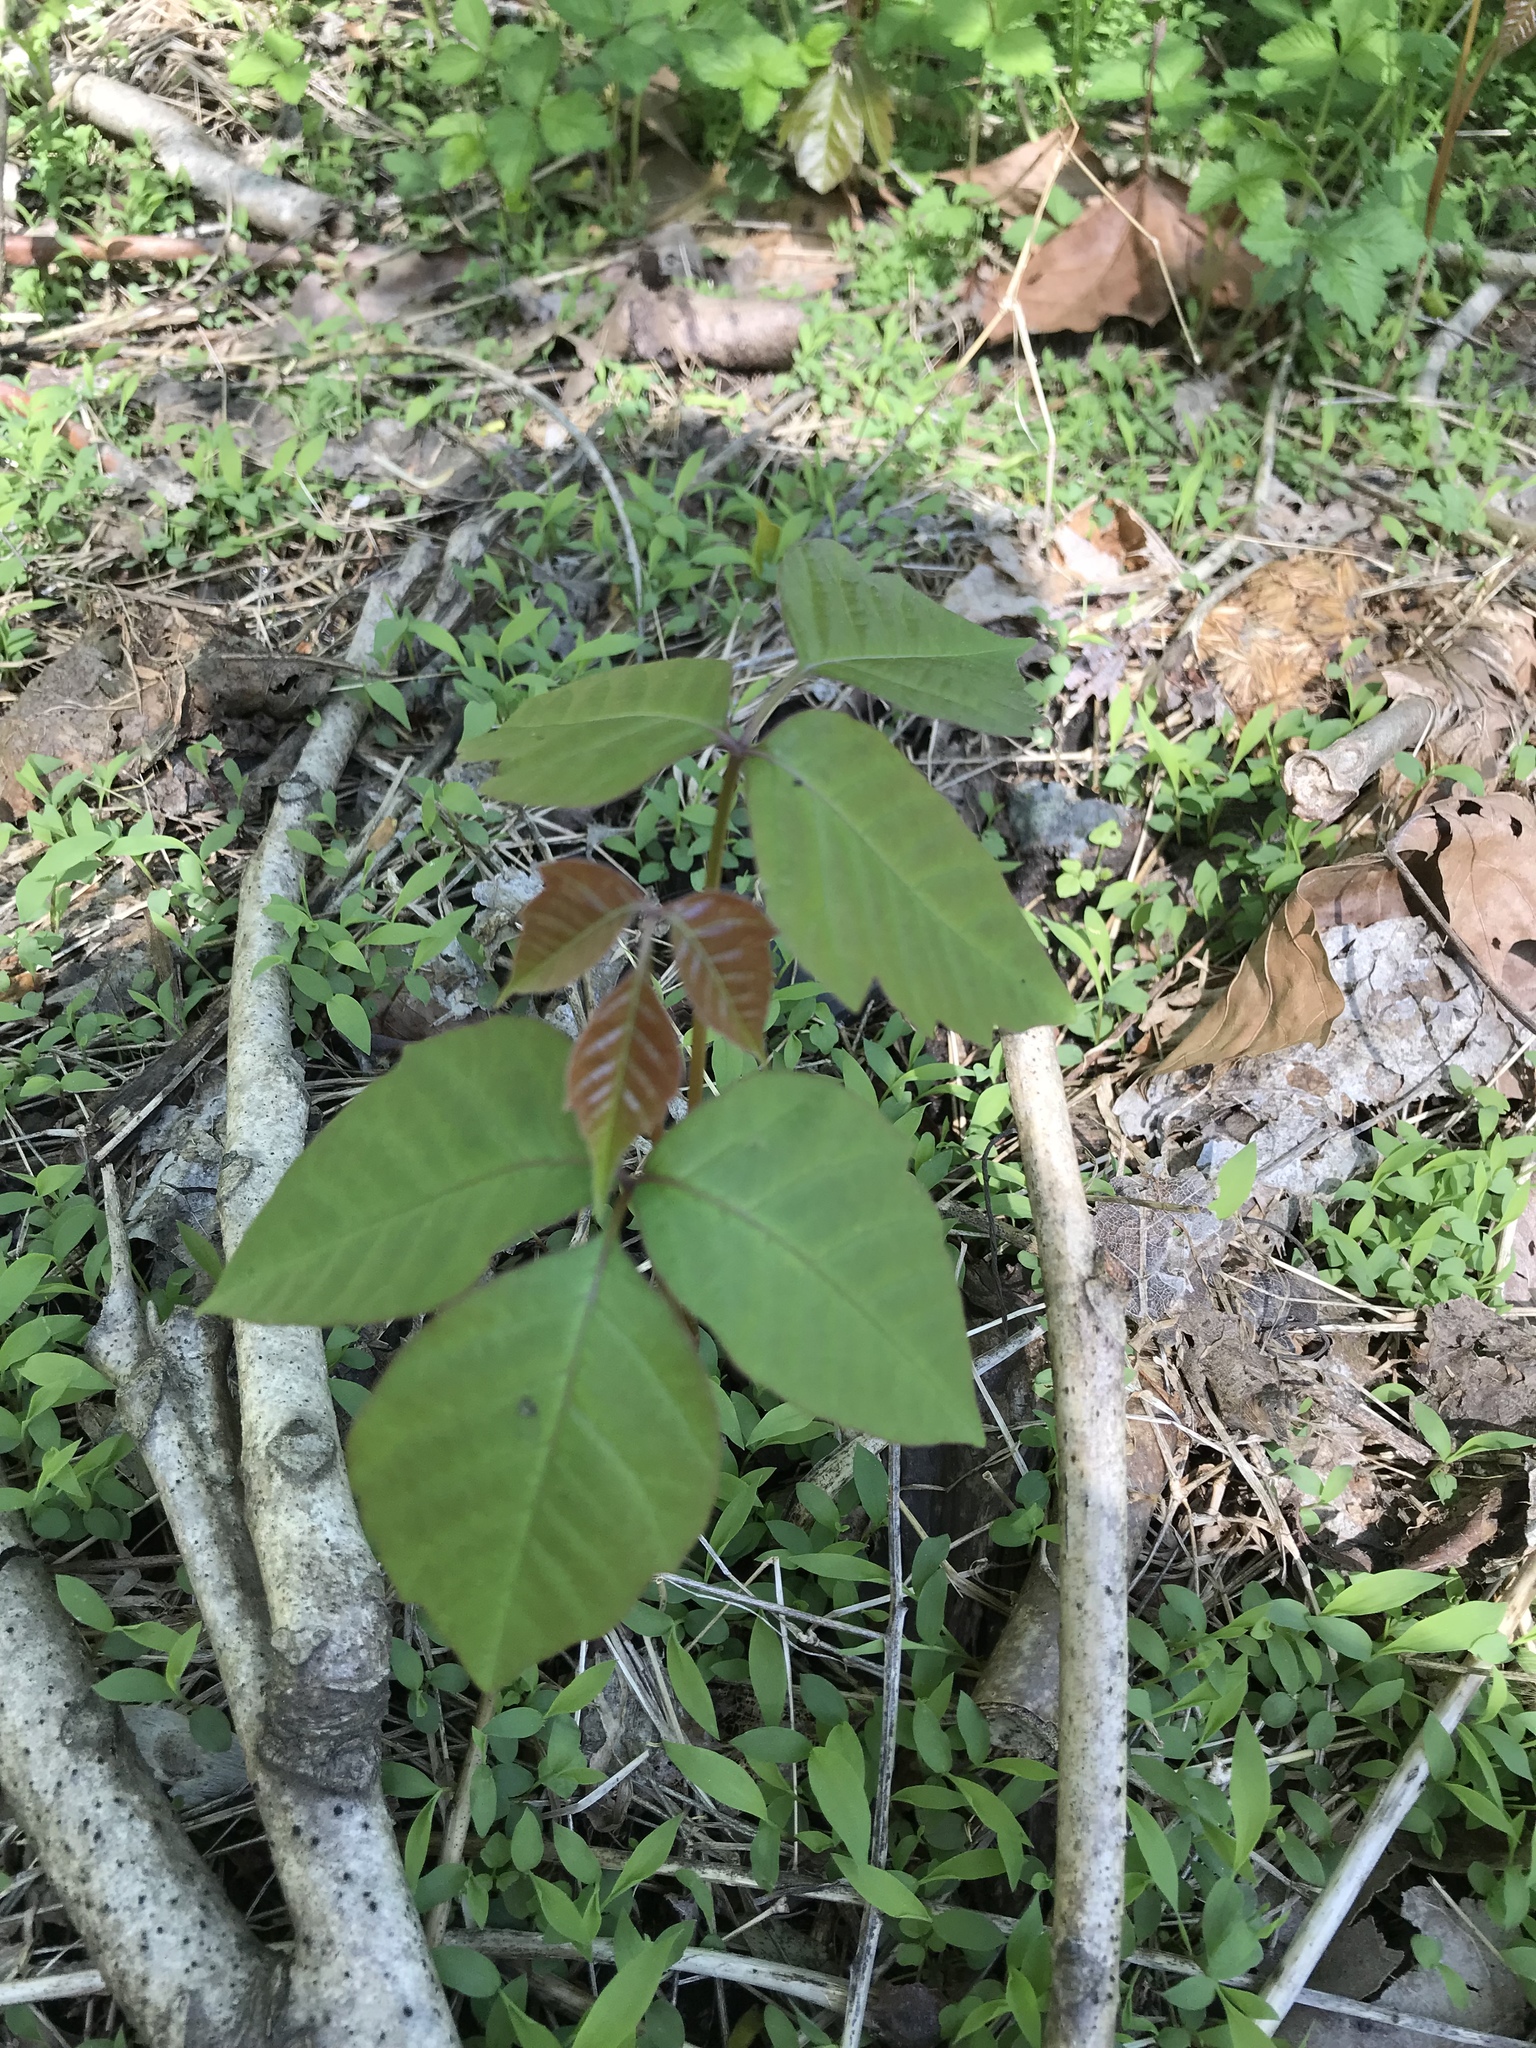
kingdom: Plantae
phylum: Tracheophyta
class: Magnoliopsida
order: Sapindales
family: Anacardiaceae
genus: Toxicodendron
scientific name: Toxicodendron radicans
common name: Poison ivy
